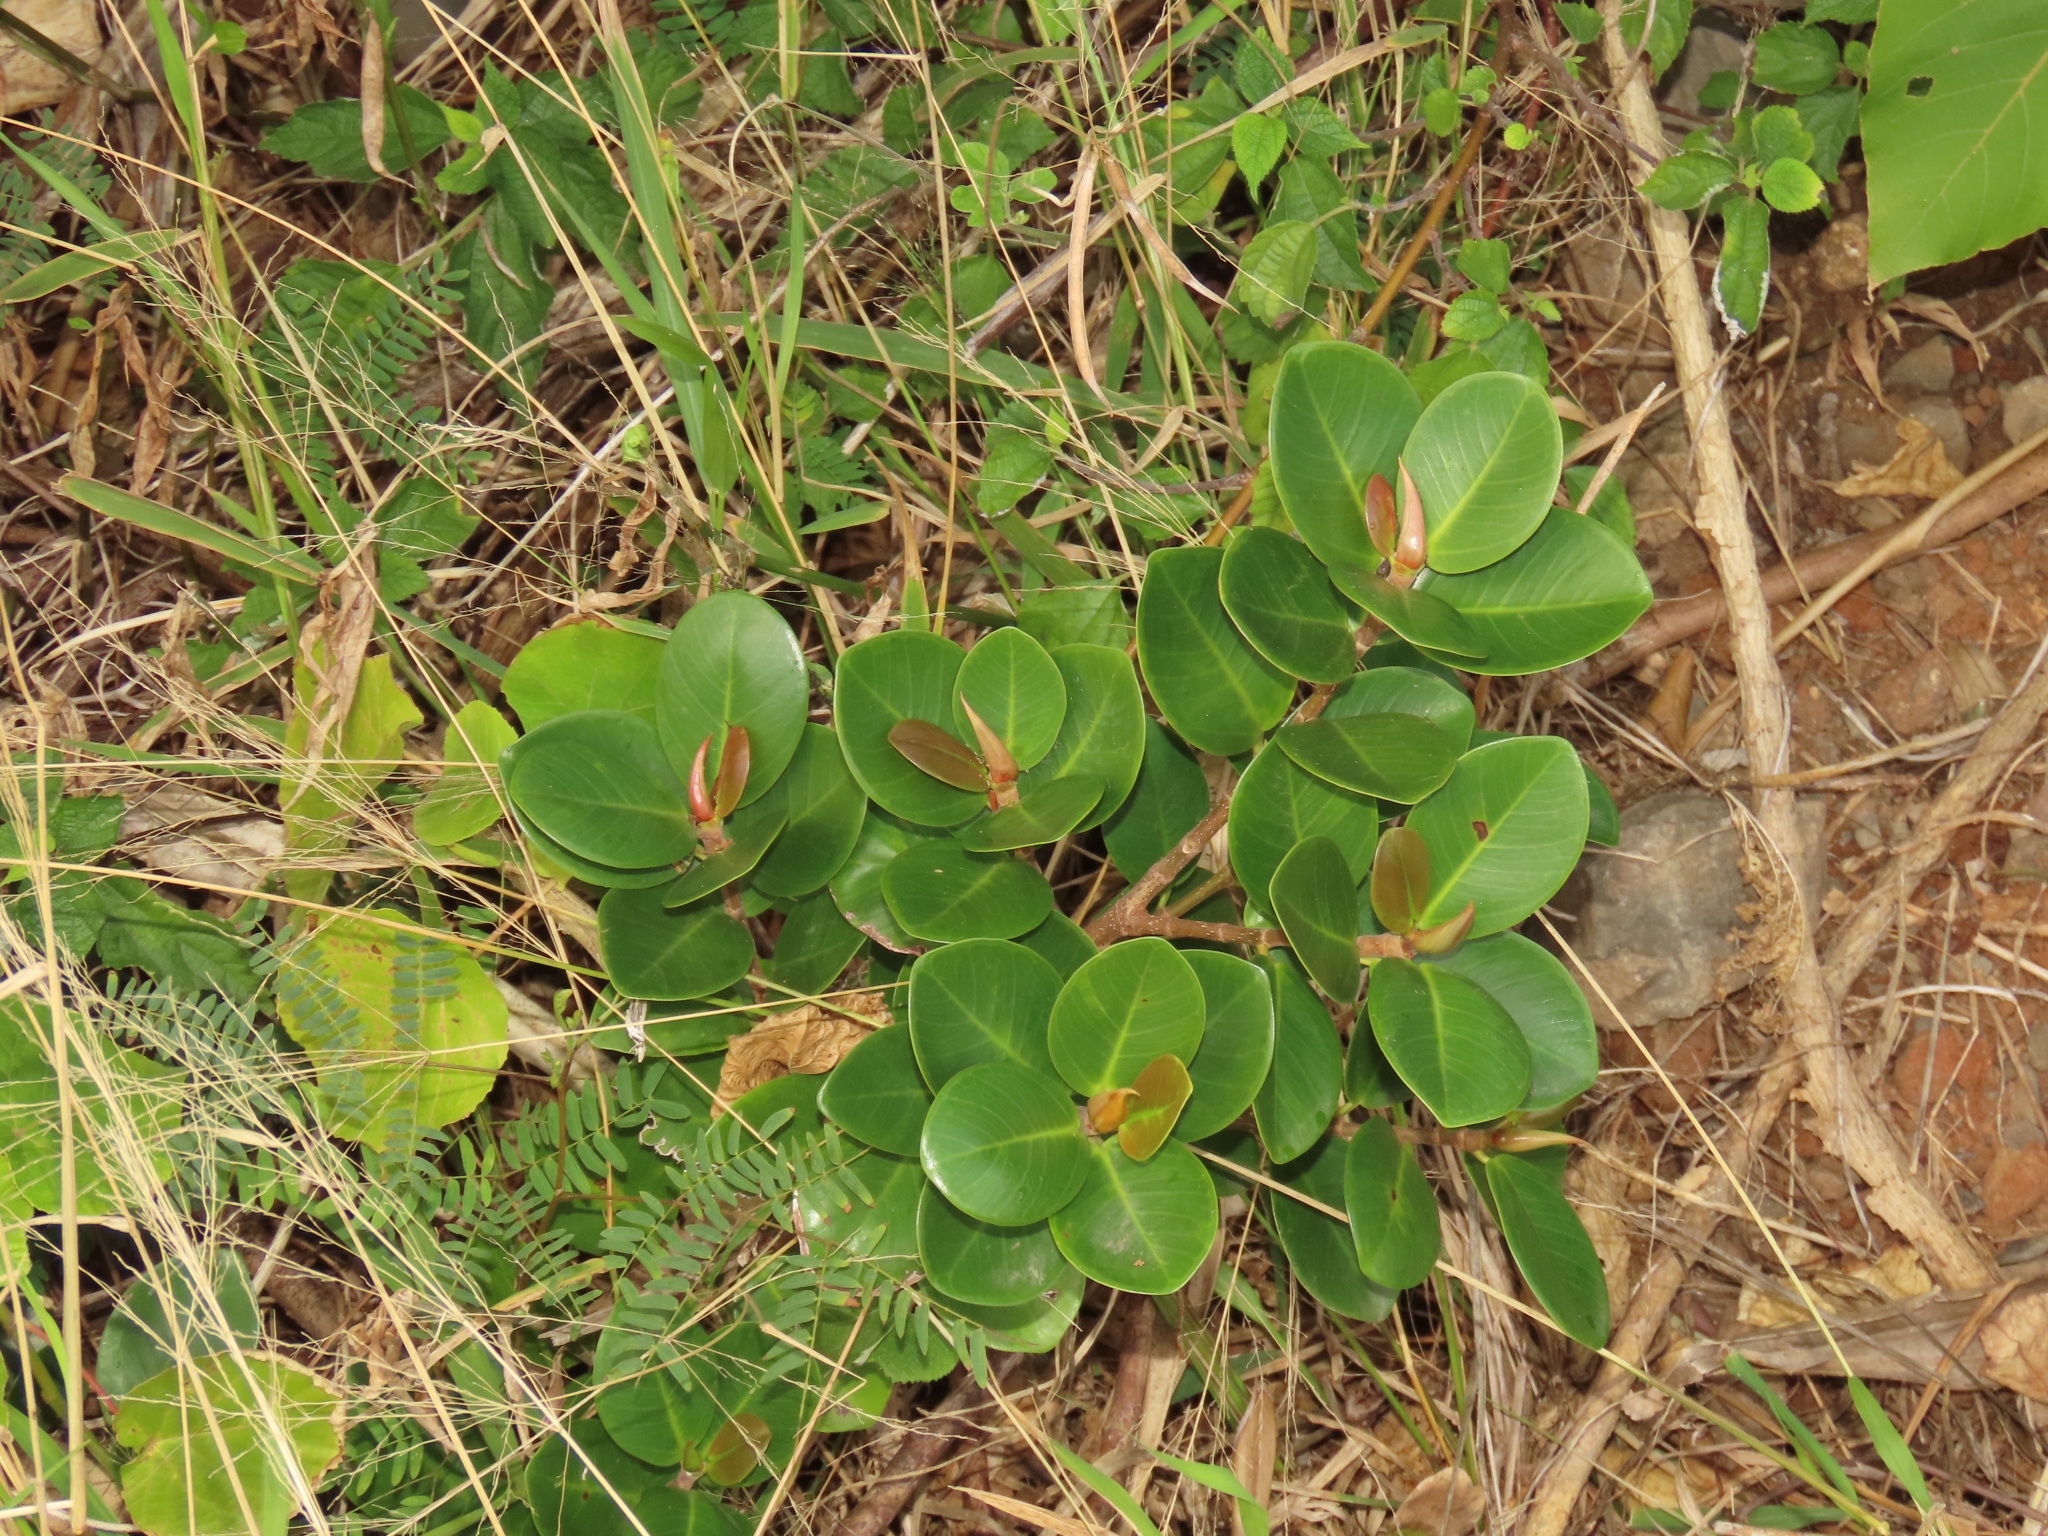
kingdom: Plantae
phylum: Tracheophyta
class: Magnoliopsida
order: Rosales
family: Moraceae
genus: Ficus
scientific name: Ficus microcarpa
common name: Chinese banyan
